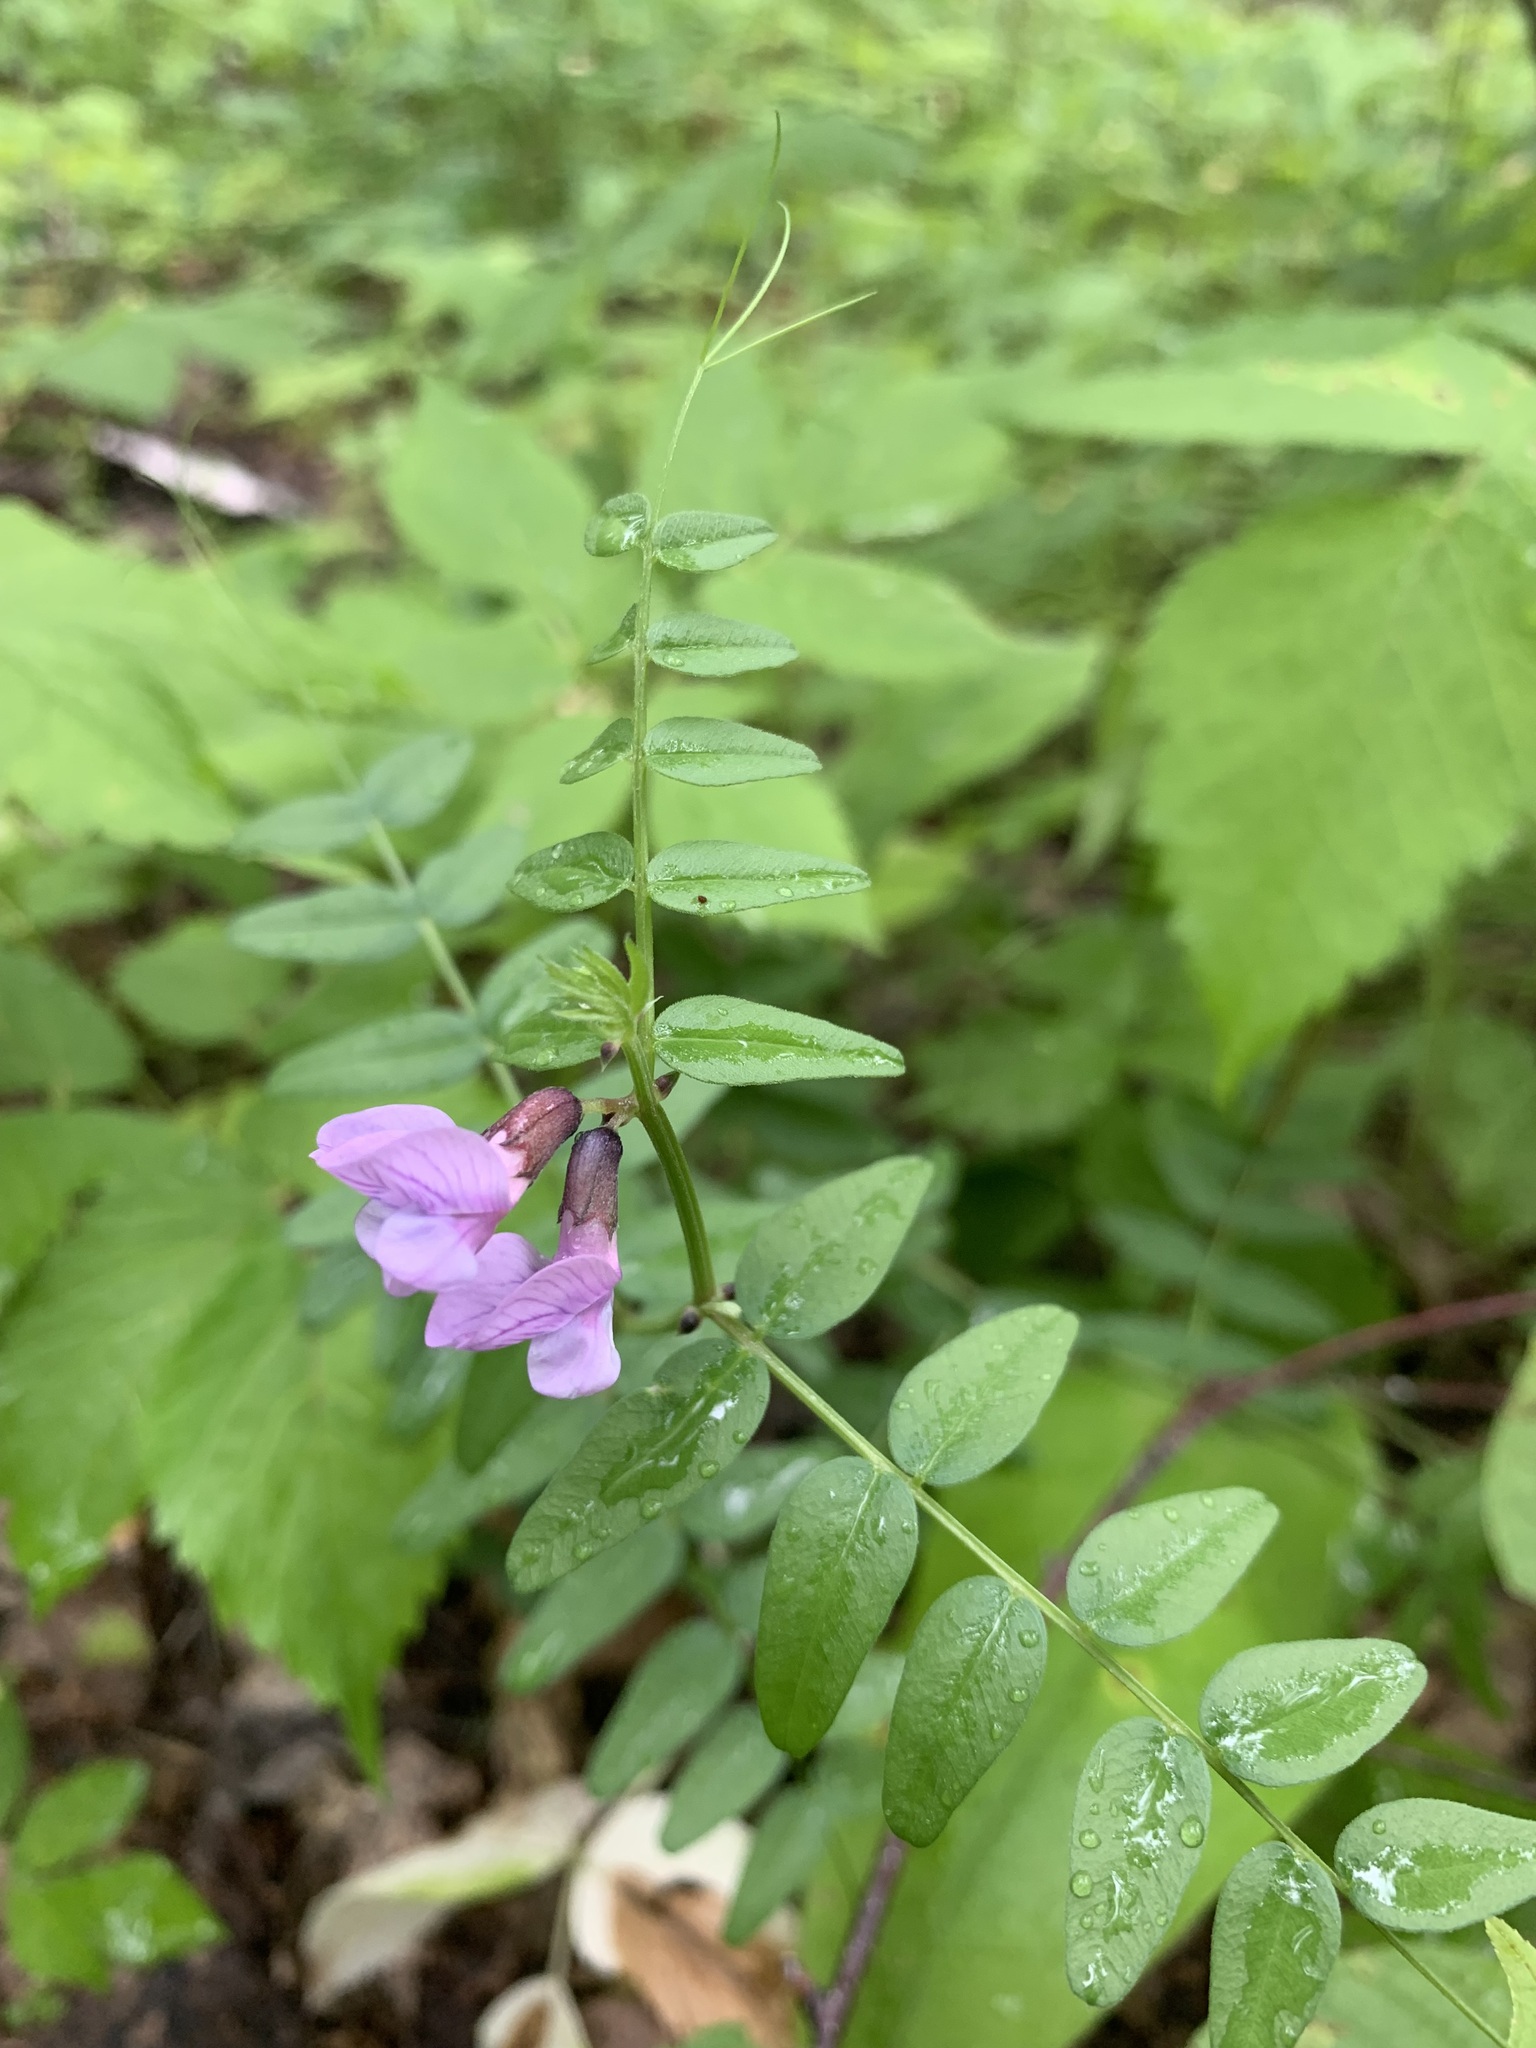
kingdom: Plantae
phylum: Tracheophyta
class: Magnoliopsida
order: Fabales
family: Fabaceae
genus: Vicia
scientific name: Vicia sepium
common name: Bush vetch
